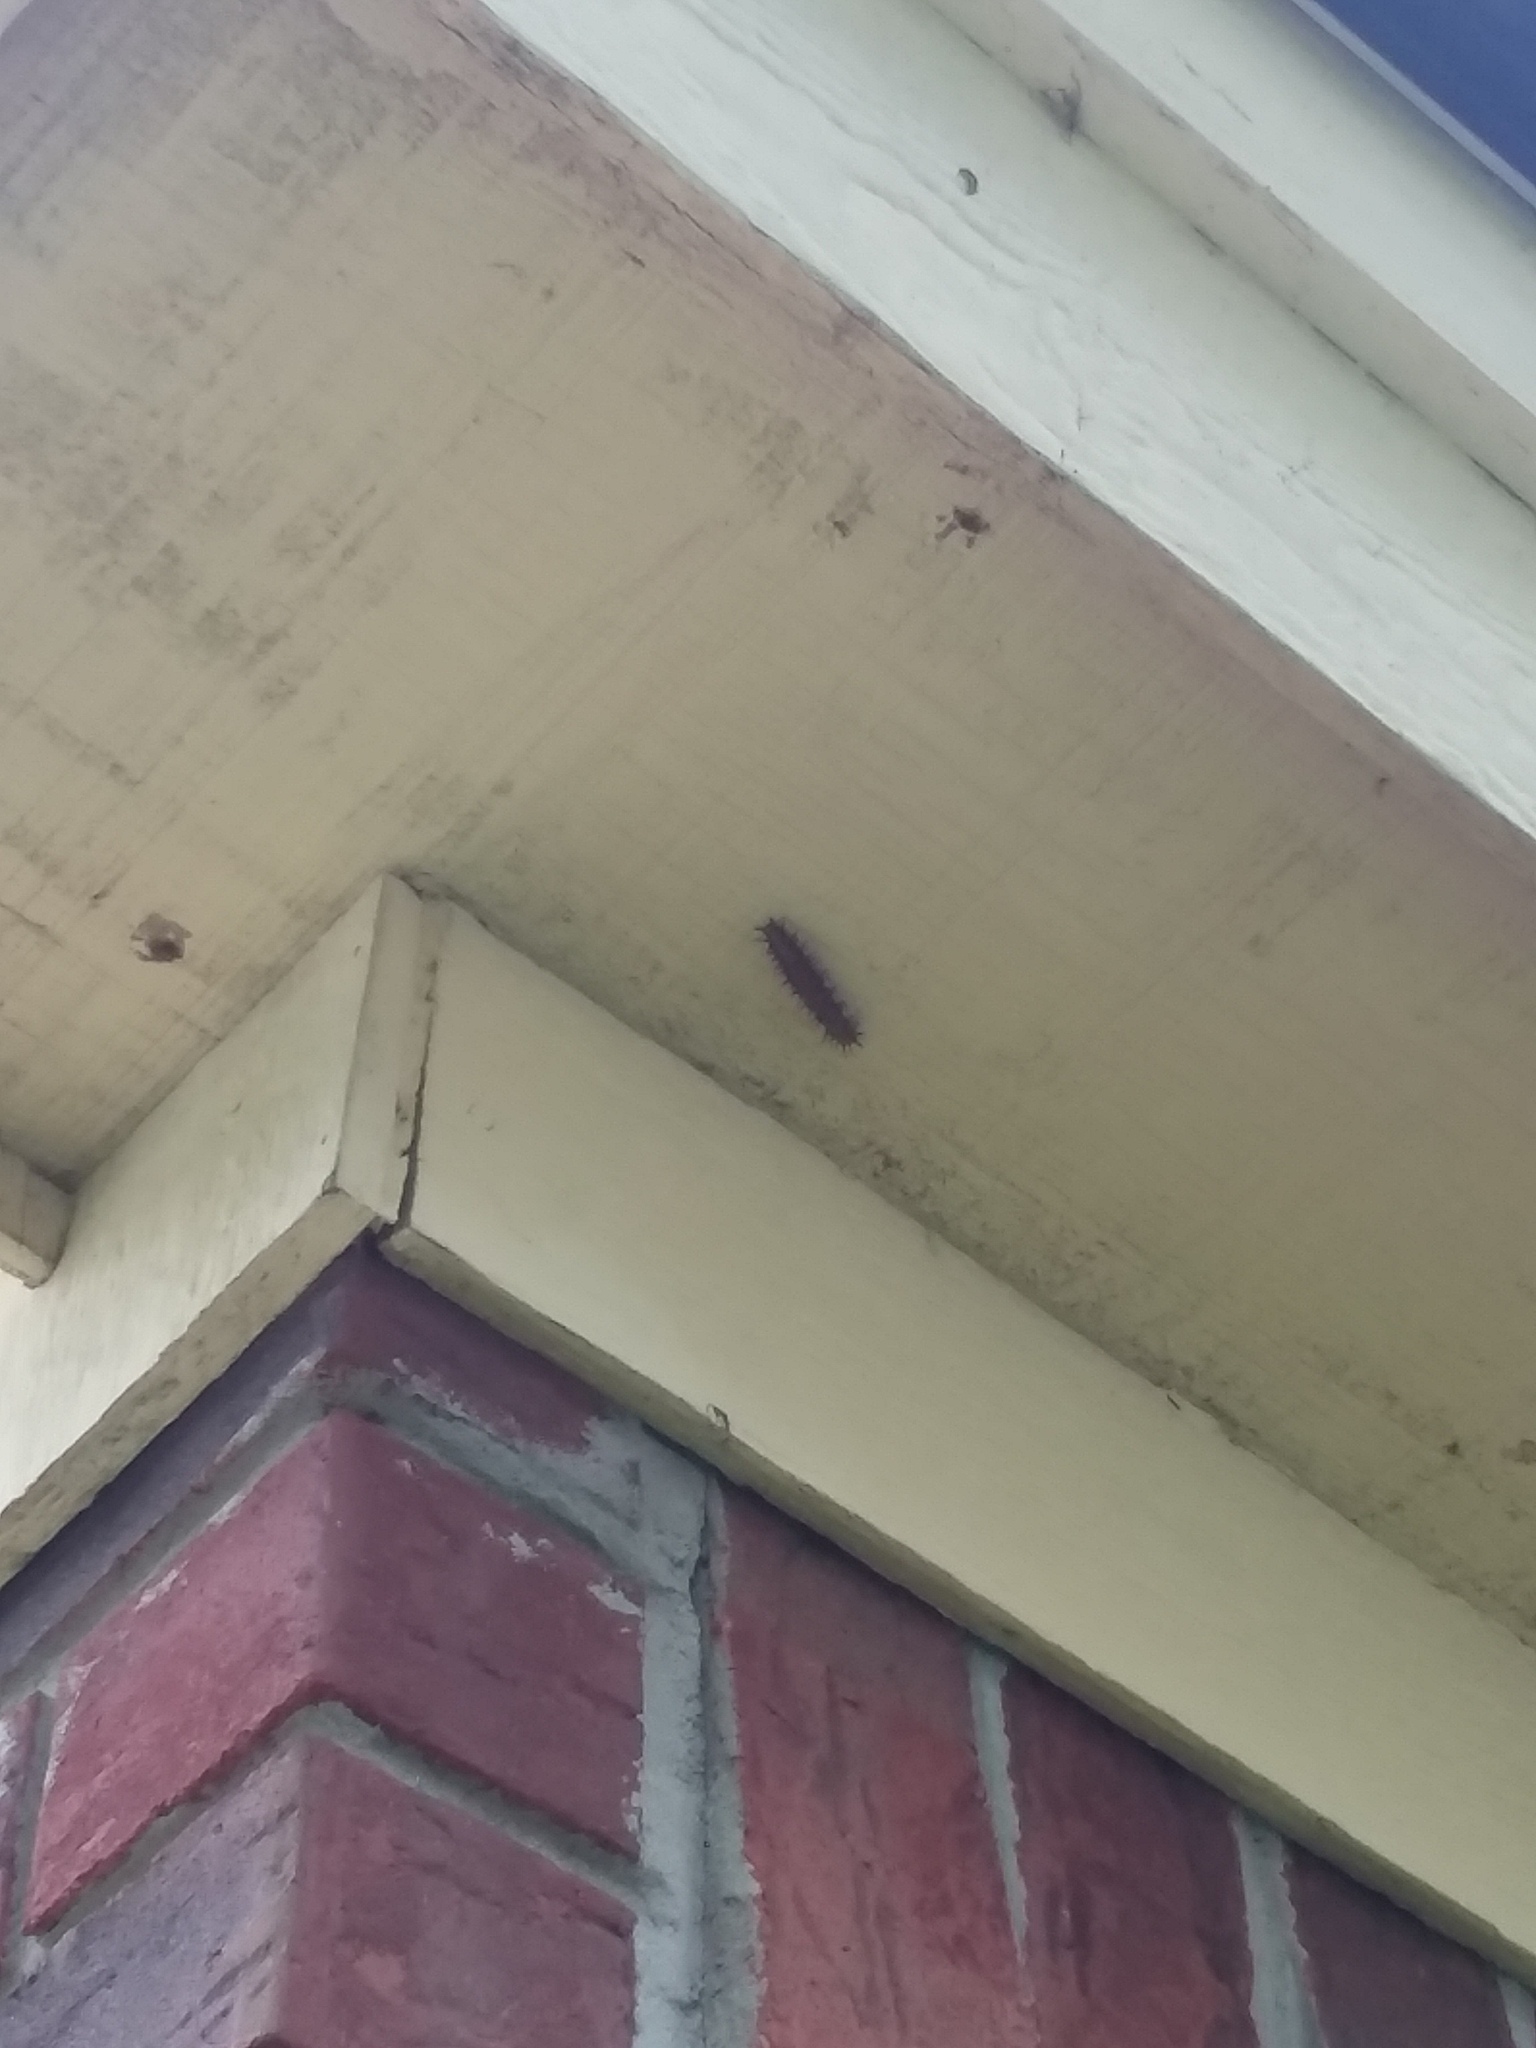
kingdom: Animalia
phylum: Arthropoda
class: Insecta
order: Lepidoptera
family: Nymphalidae
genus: Dione
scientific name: Dione vanillae
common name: Gulf fritillary
